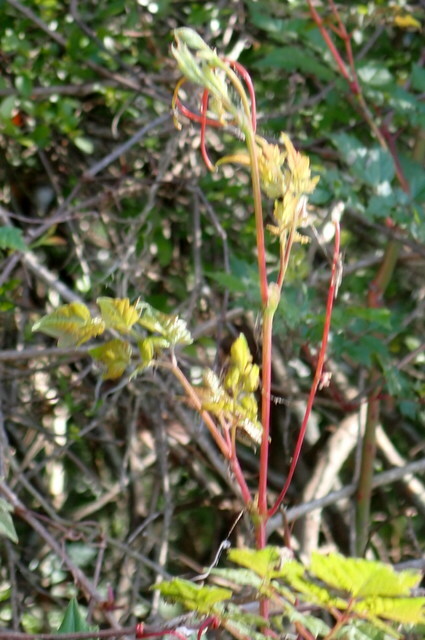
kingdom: Plantae
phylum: Tracheophyta
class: Magnoliopsida
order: Vitales
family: Vitaceae
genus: Nekemias
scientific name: Nekemias arborea
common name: Peppervine
